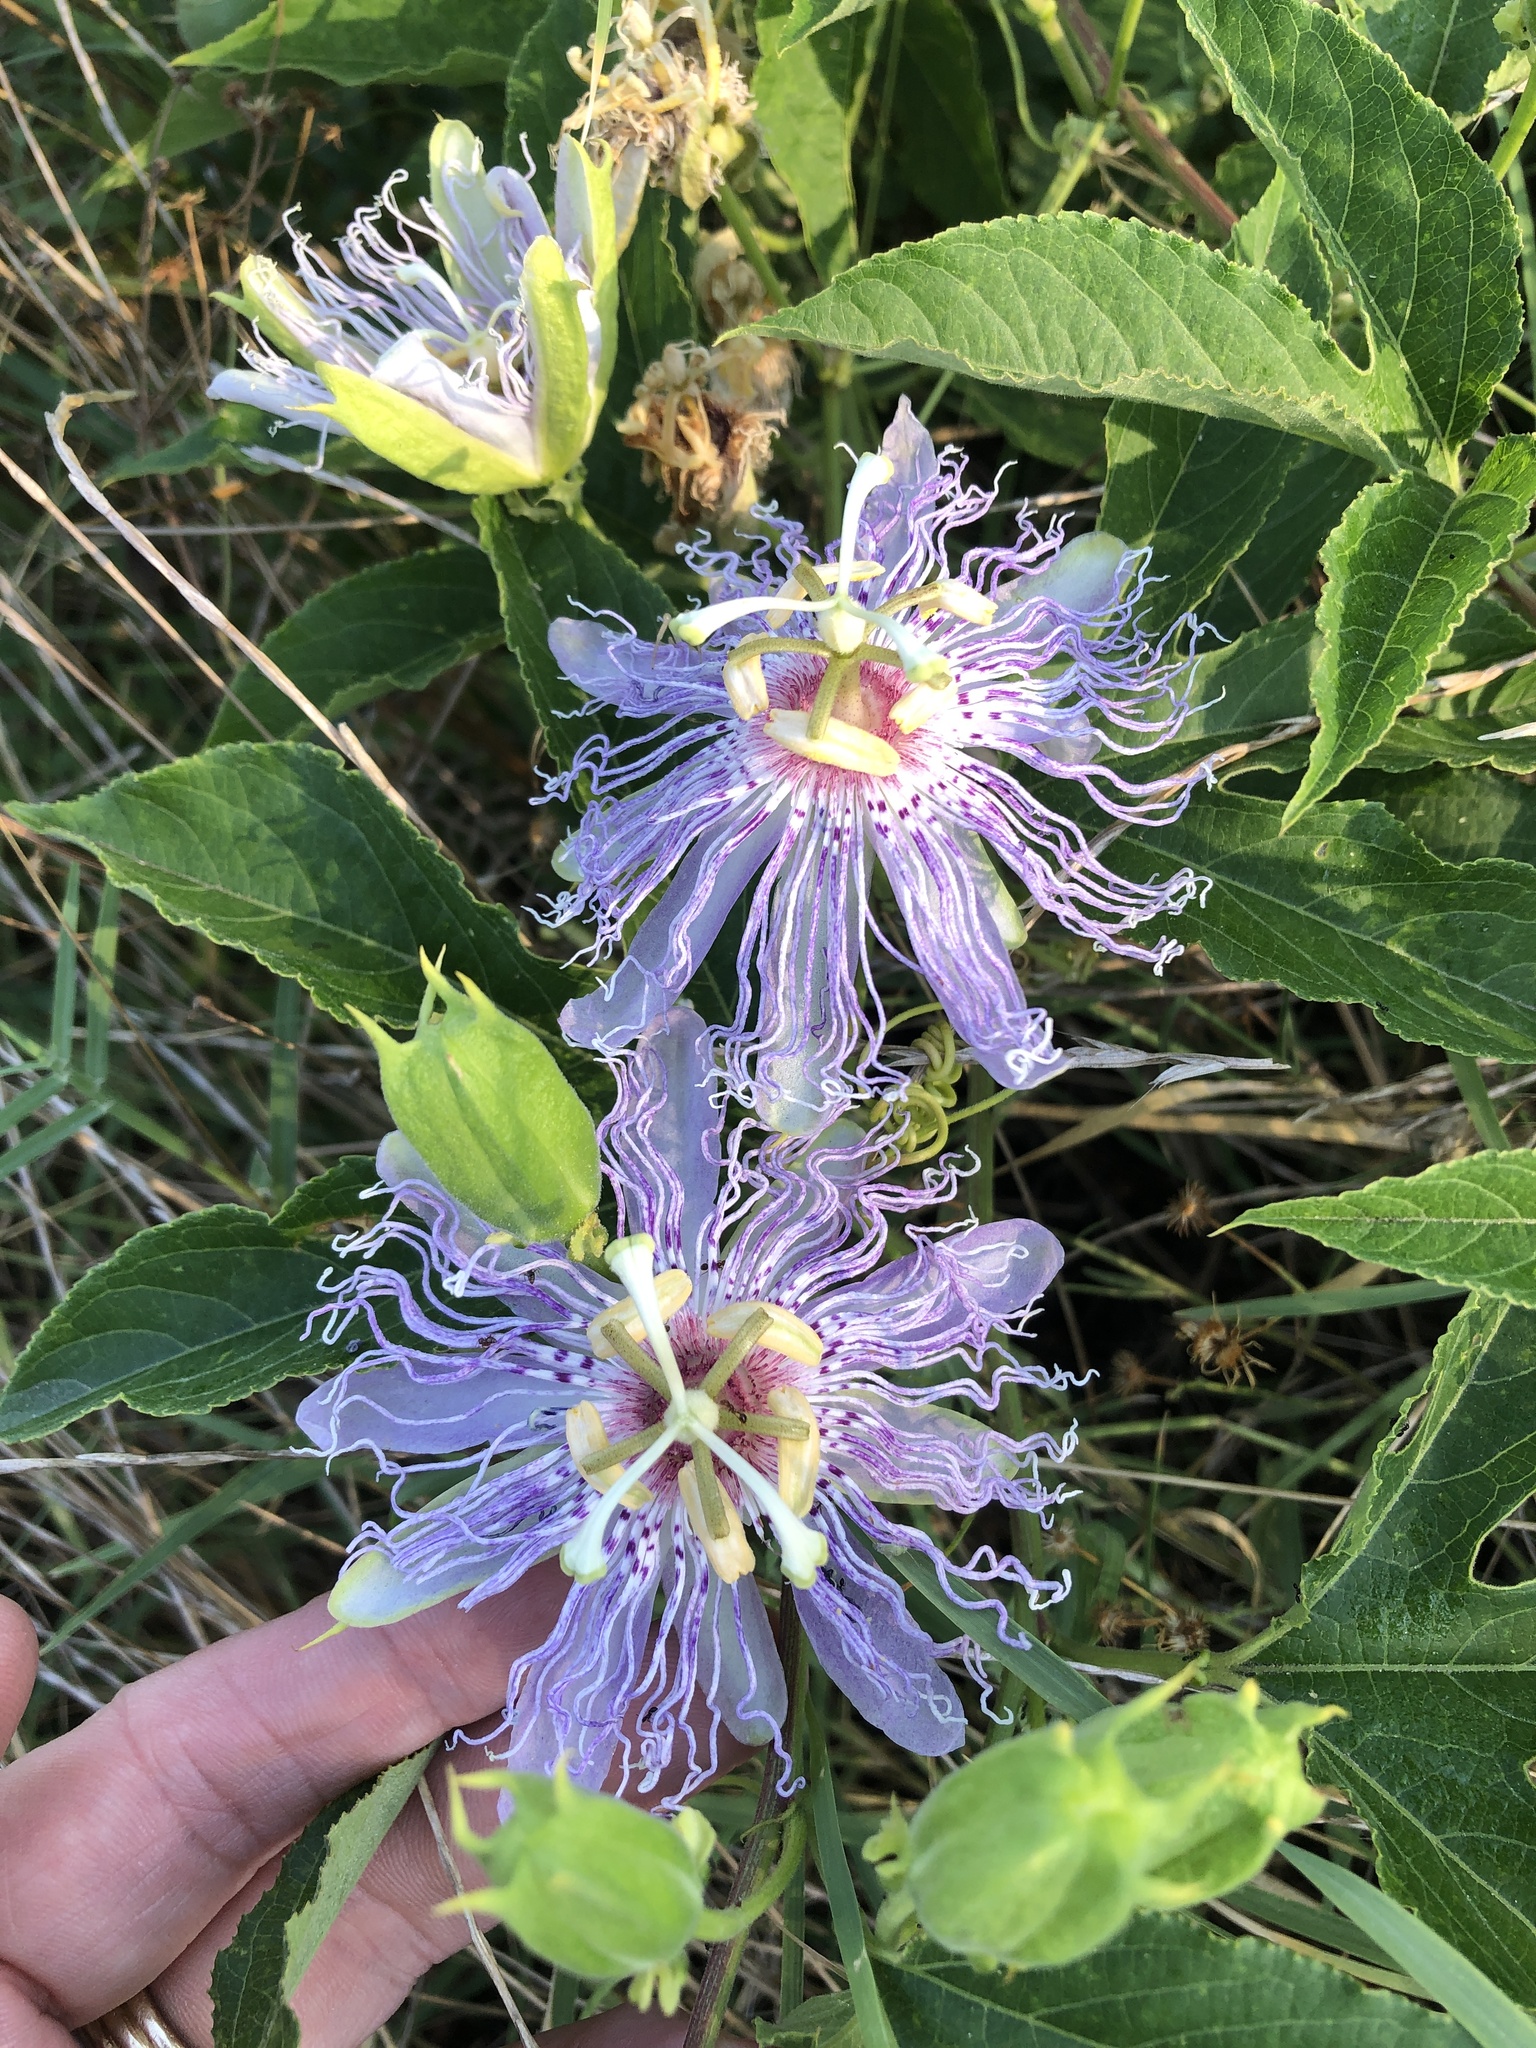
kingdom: Plantae
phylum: Tracheophyta
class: Magnoliopsida
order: Malpighiales
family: Passifloraceae
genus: Passiflora
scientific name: Passiflora incarnata
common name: Apricot-vine
